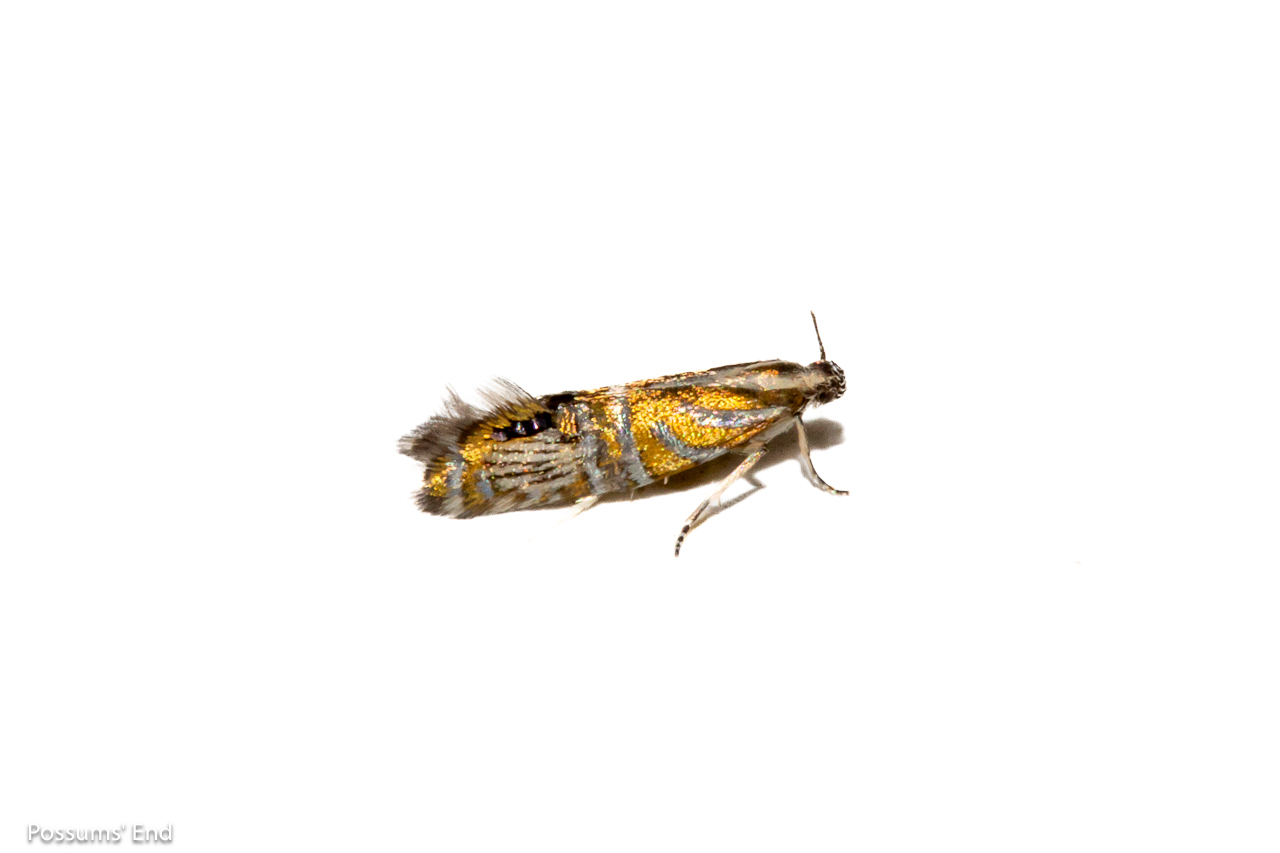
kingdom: Animalia
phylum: Arthropoda
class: Insecta
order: Lepidoptera
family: Glyphipterigidae
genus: Glyphipterix
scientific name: Glyphipterix triselena
